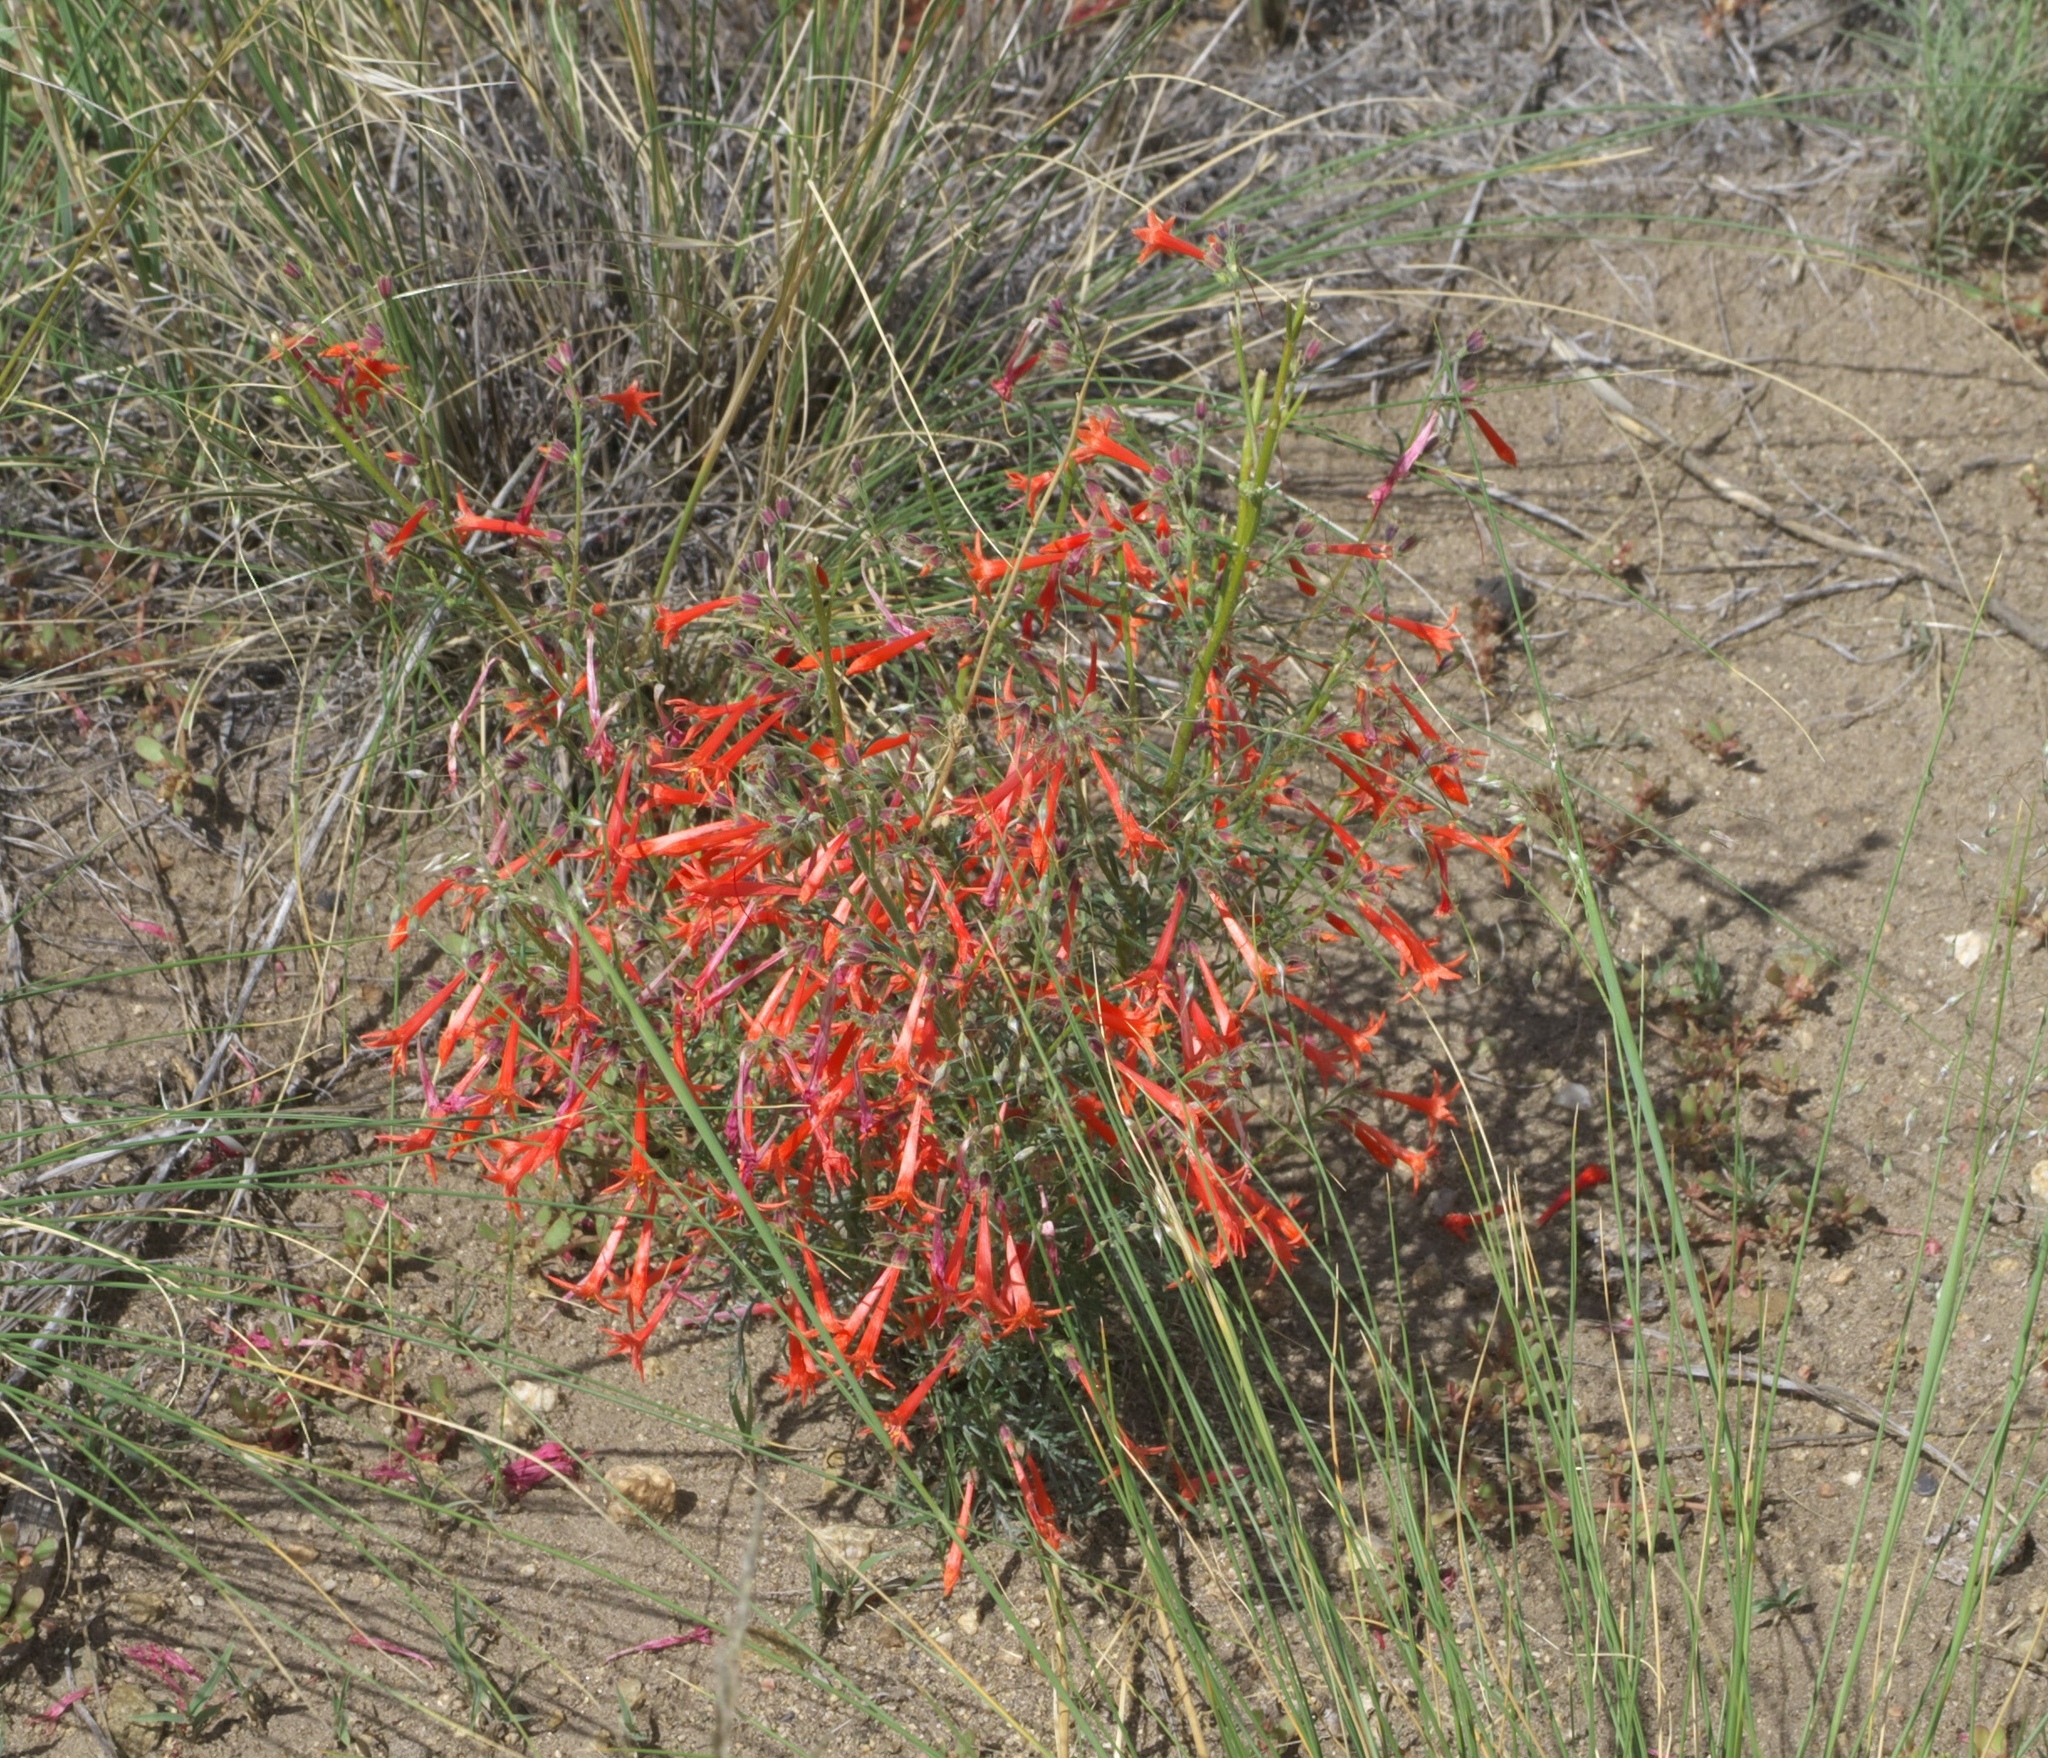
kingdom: Plantae
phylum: Tracheophyta
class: Magnoliopsida
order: Ericales
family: Polemoniaceae
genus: Ipomopsis
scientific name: Ipomopsis aggregata
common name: Scarlet gilia
